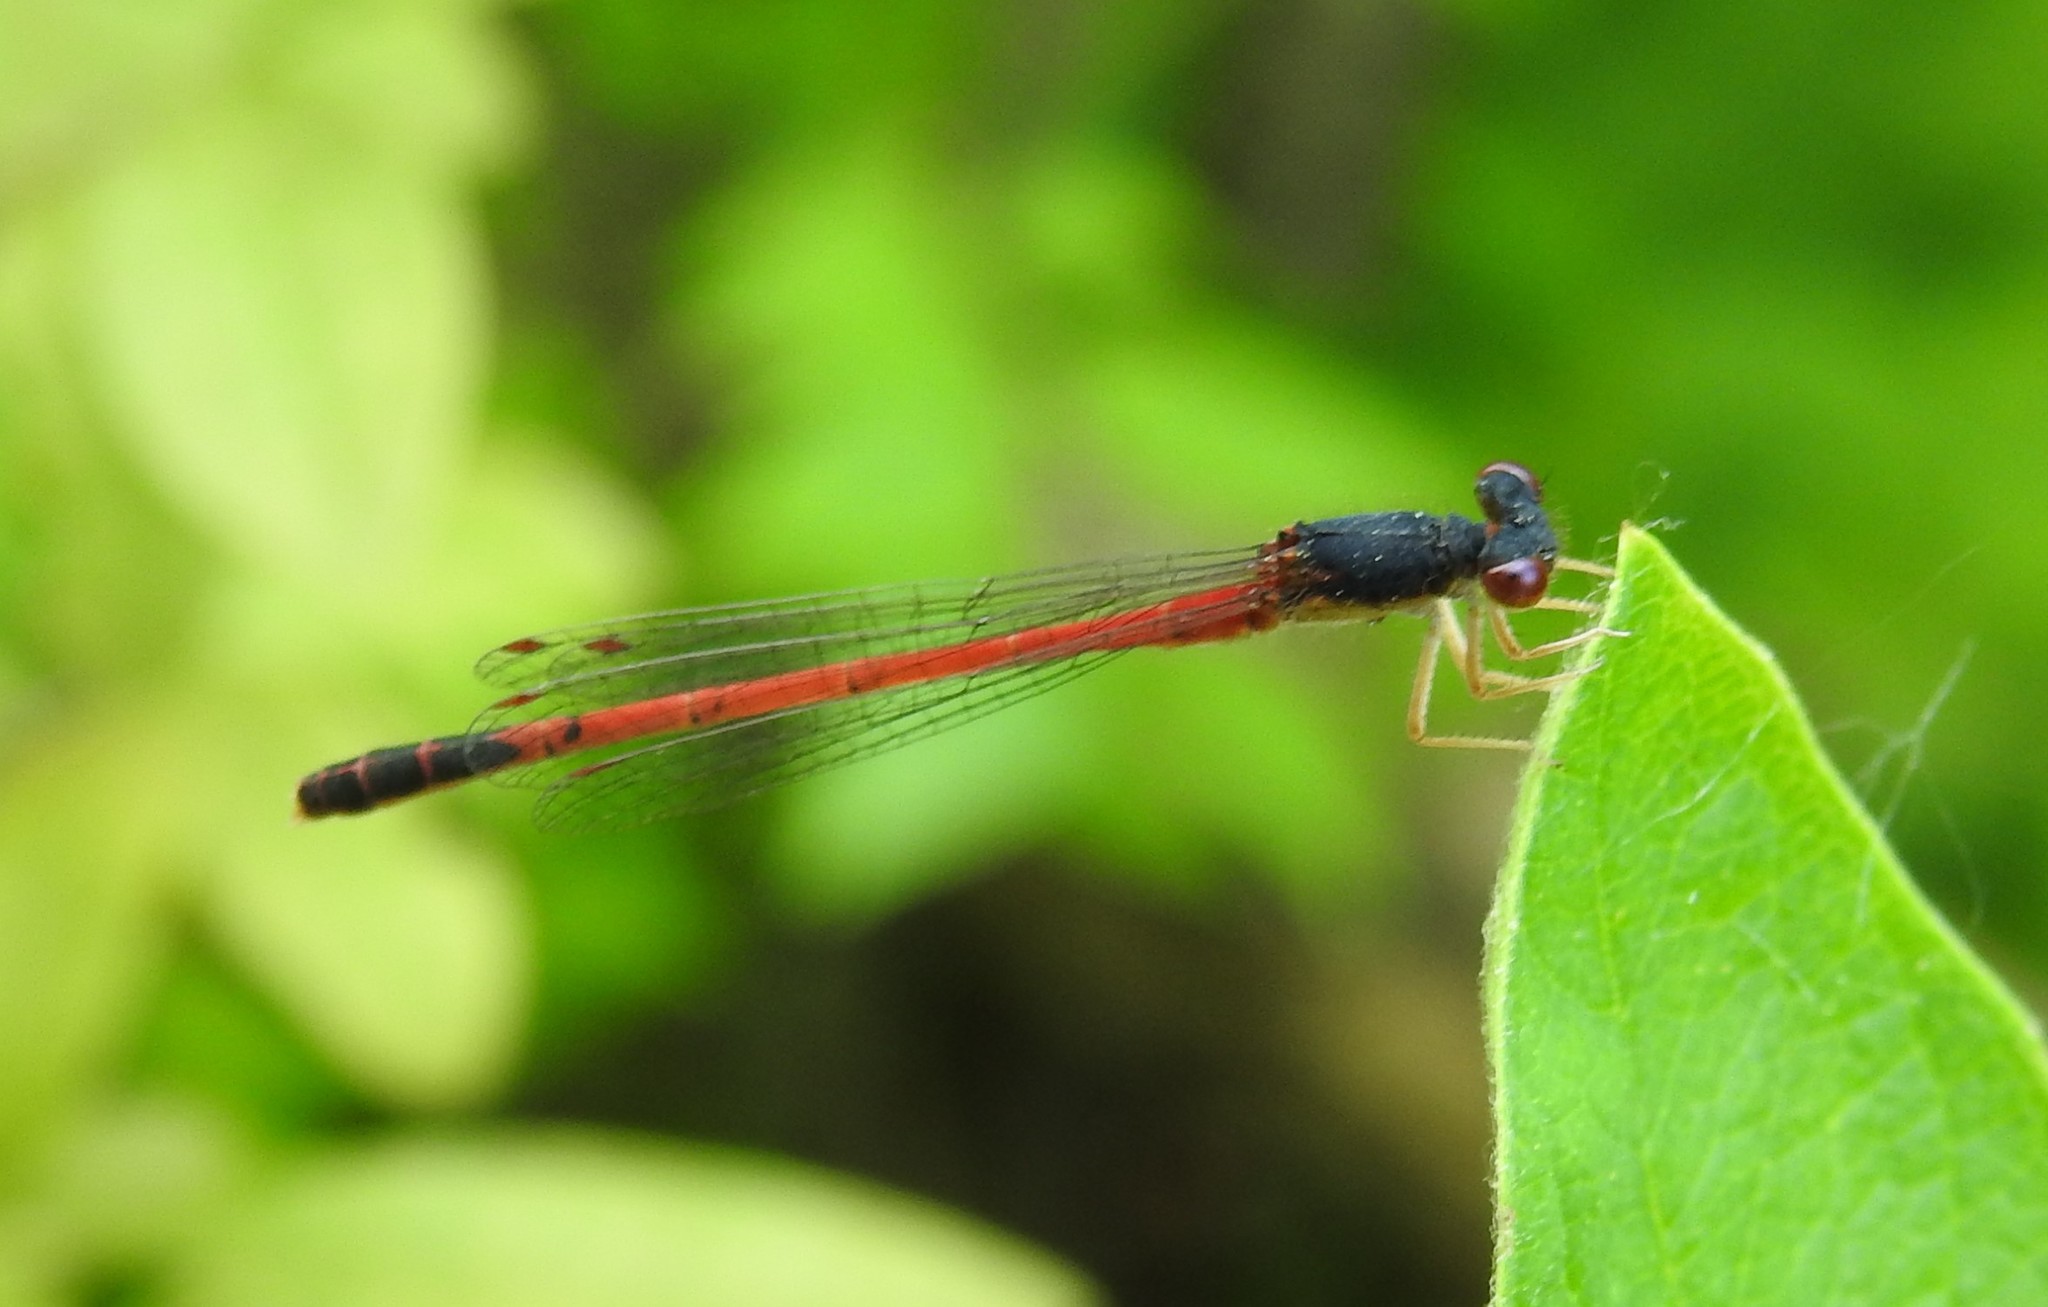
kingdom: Animalia
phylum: Arthropoda
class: Insecta
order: Odonata
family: Coenagrionidae
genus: Amphiagrion
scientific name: Amphiagrion saucium
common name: Eastern red damsel
